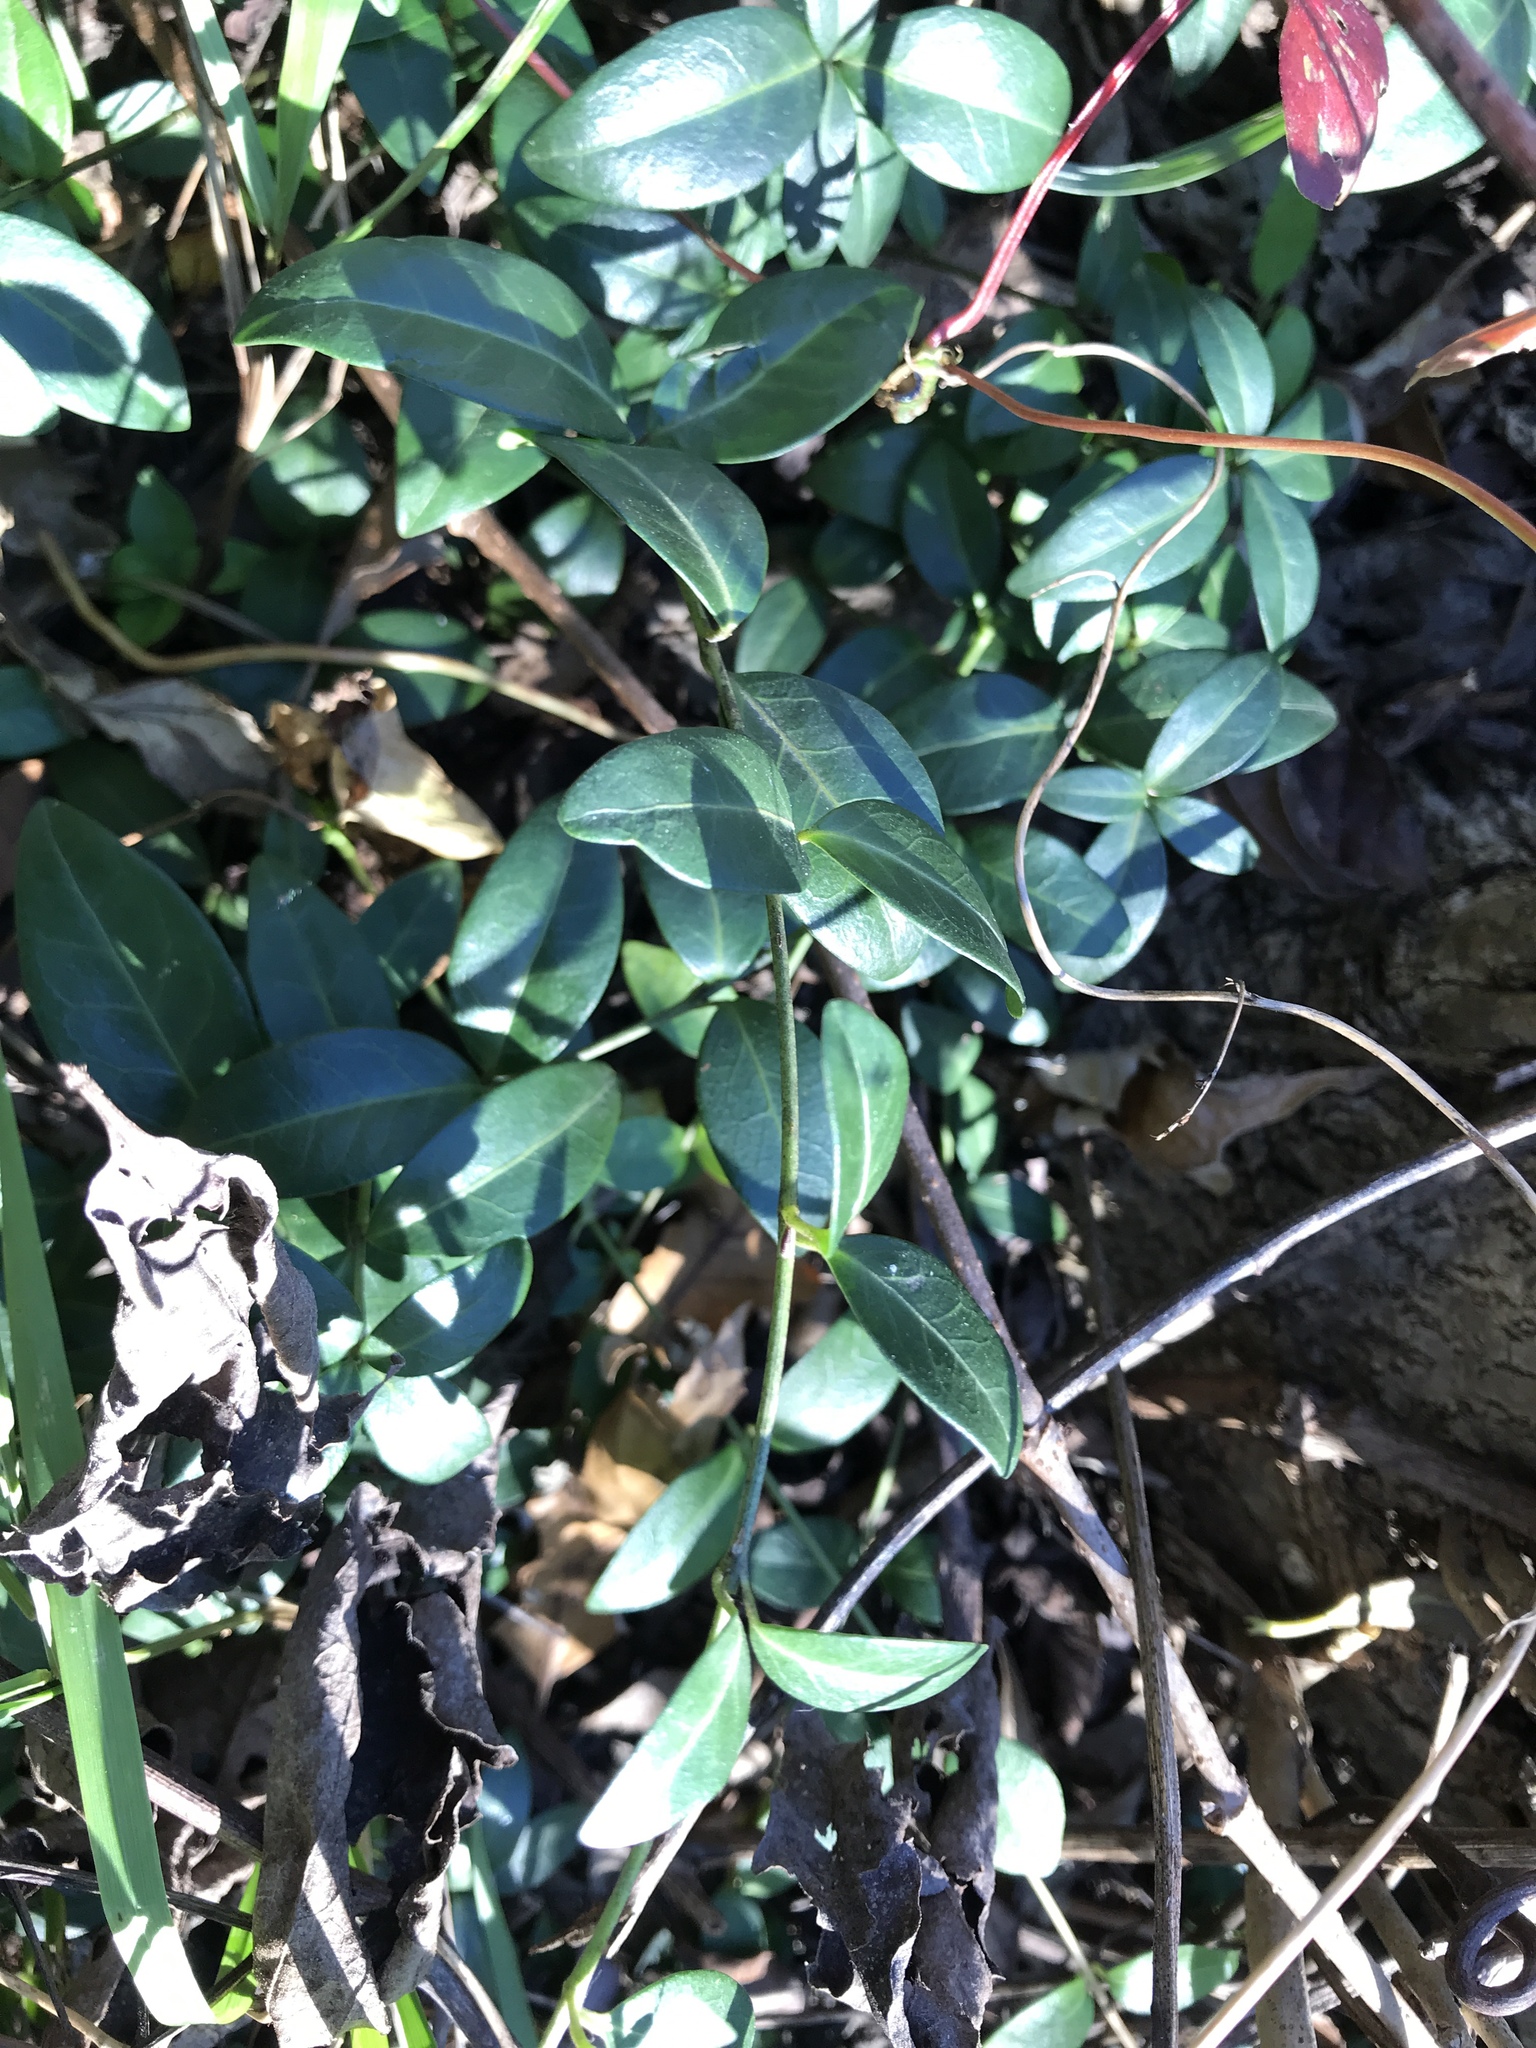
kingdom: Plantae
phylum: Tracheophyta
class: Magnoliopsida
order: Celastrales
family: Celastraceae
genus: Euonymus
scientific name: Euonymus fortunei
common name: Climbing euonymus
